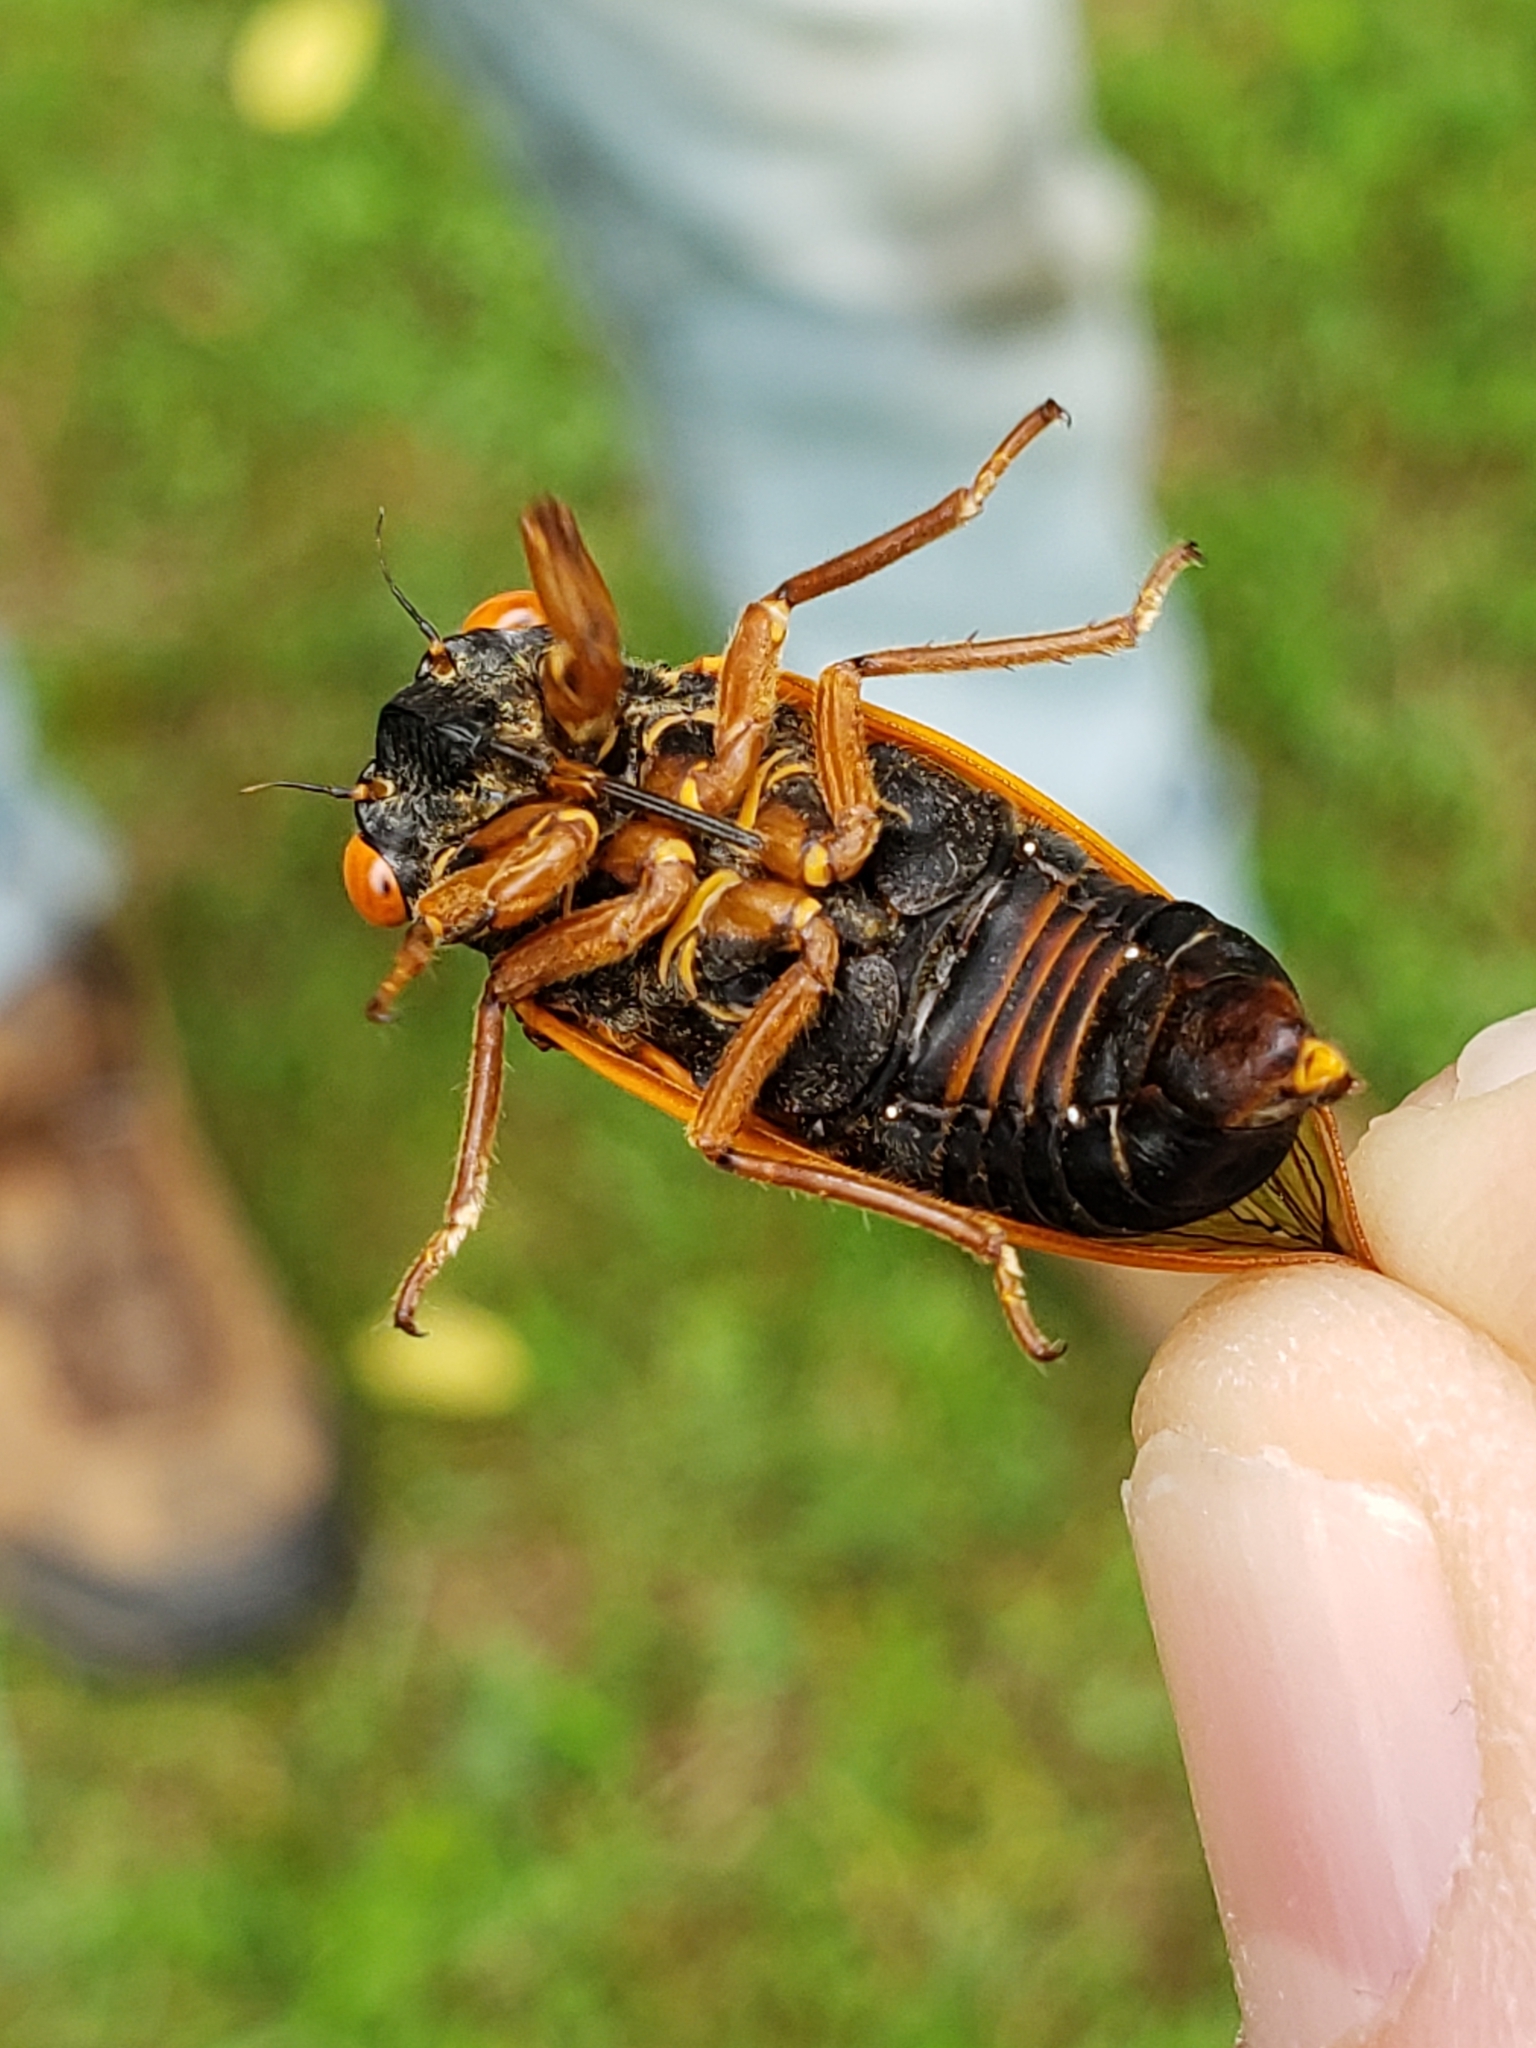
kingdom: Animalia
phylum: Arthropoda
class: Insecta
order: Hemiptera
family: Cicadidae
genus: Magicicada
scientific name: Magicicada septendecula
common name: Decula periodical cicada
